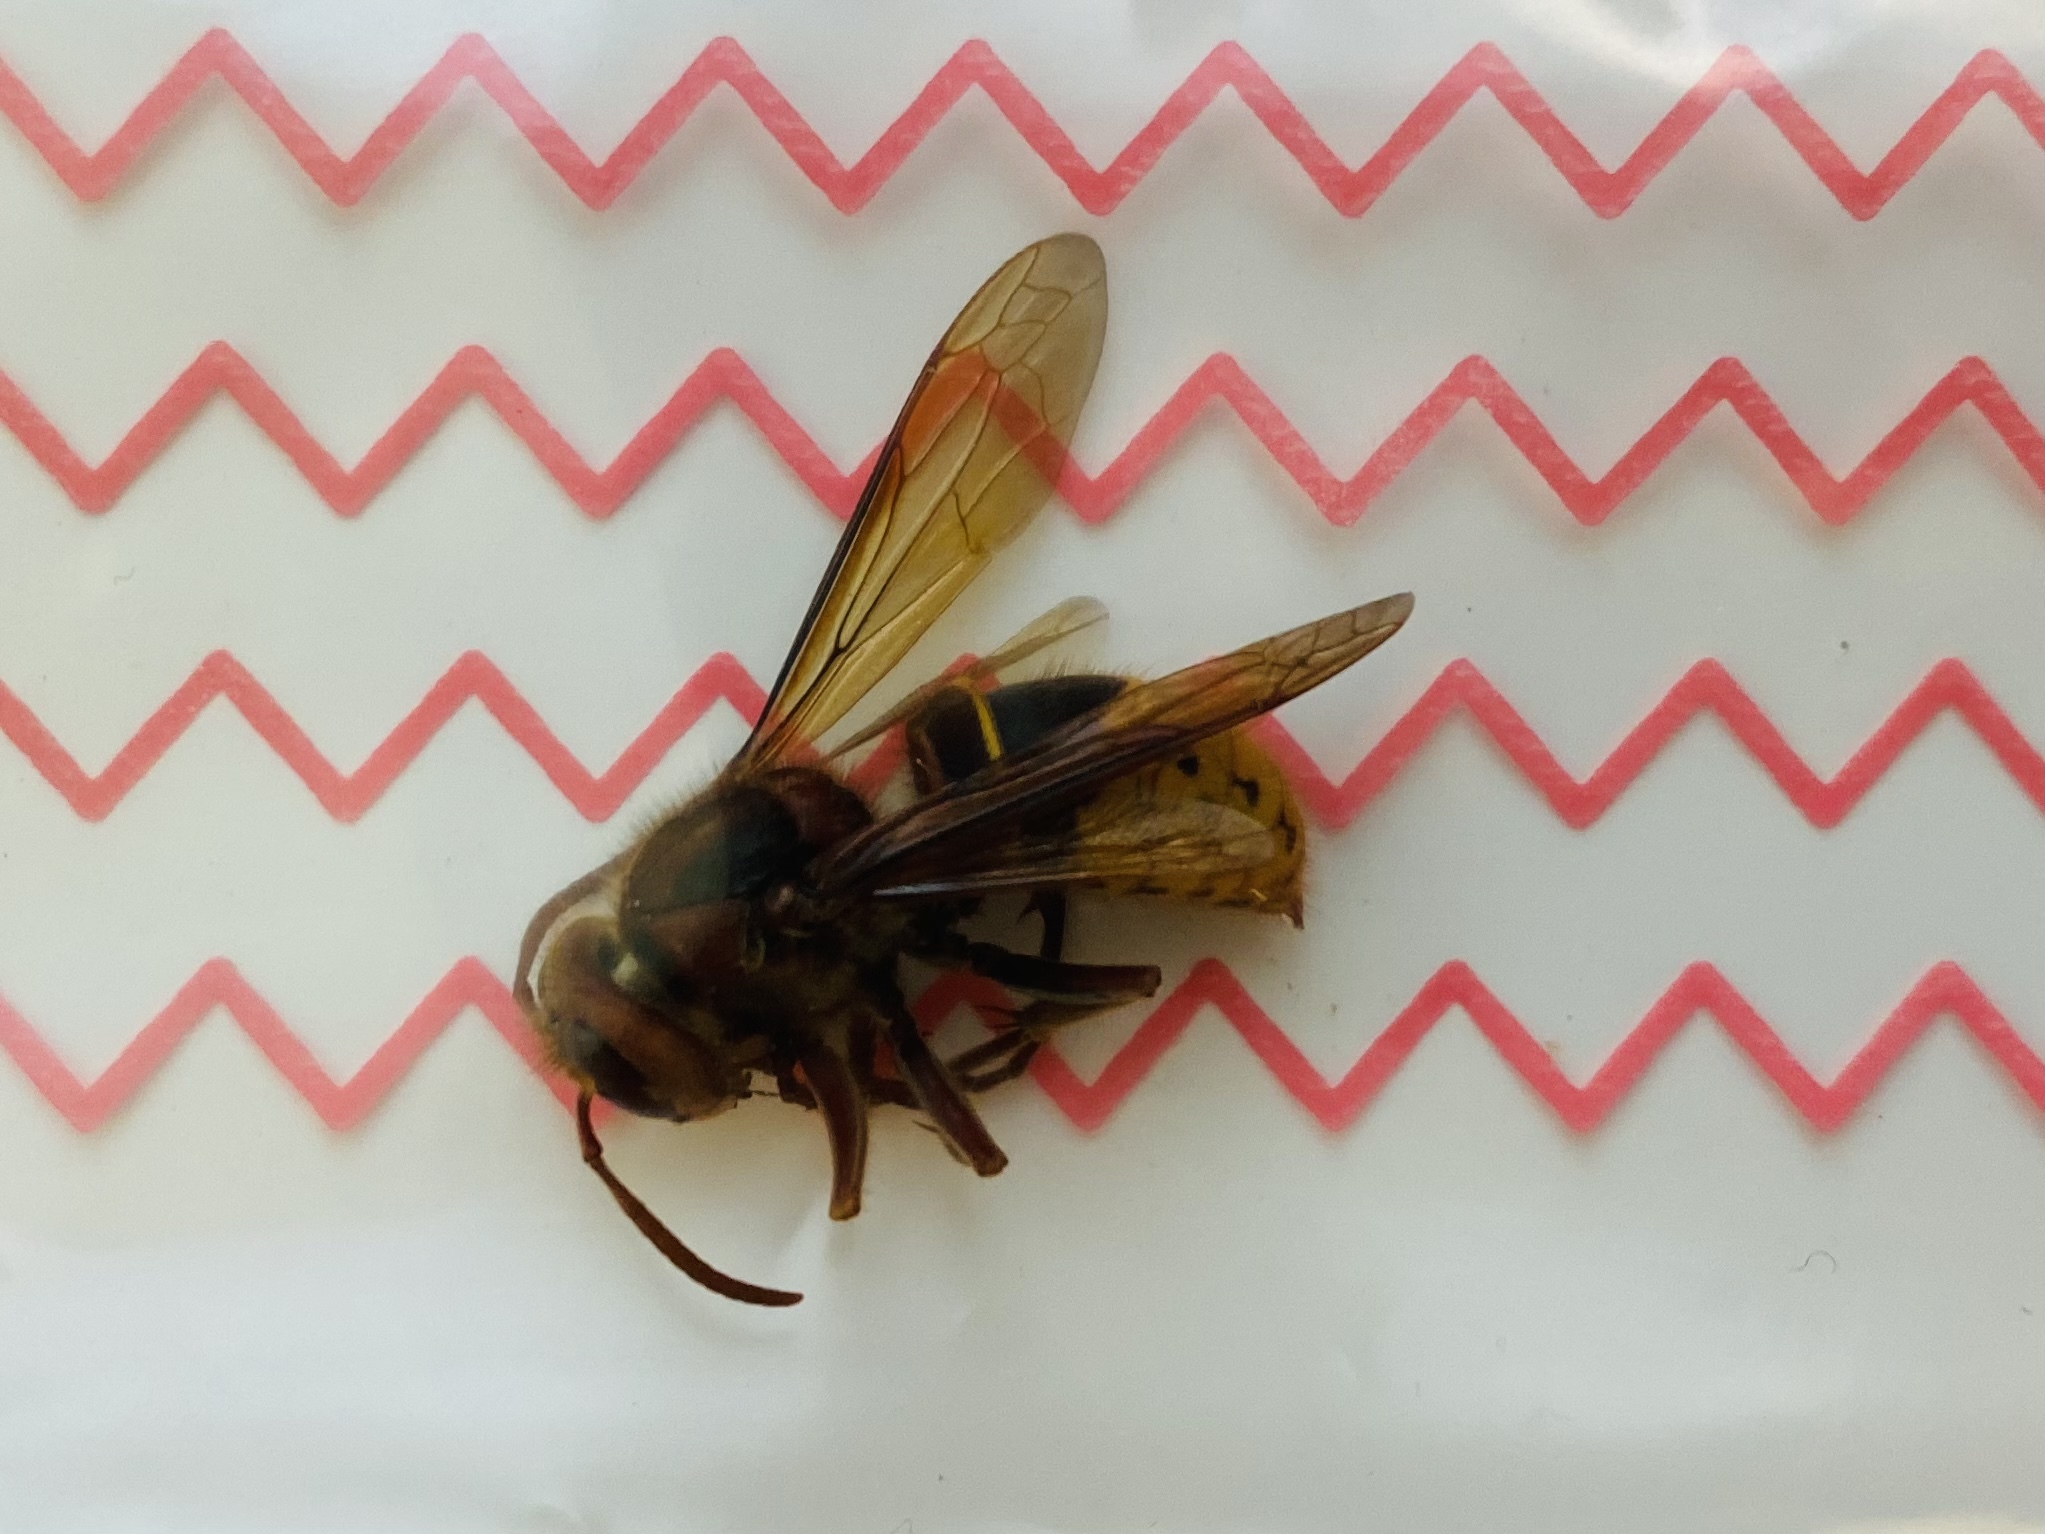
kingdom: Animalia
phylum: Arthropoda
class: Insecta
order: Hymenoptera
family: Vespidae
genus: Vespa
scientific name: Vespa crabro
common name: Hornet
